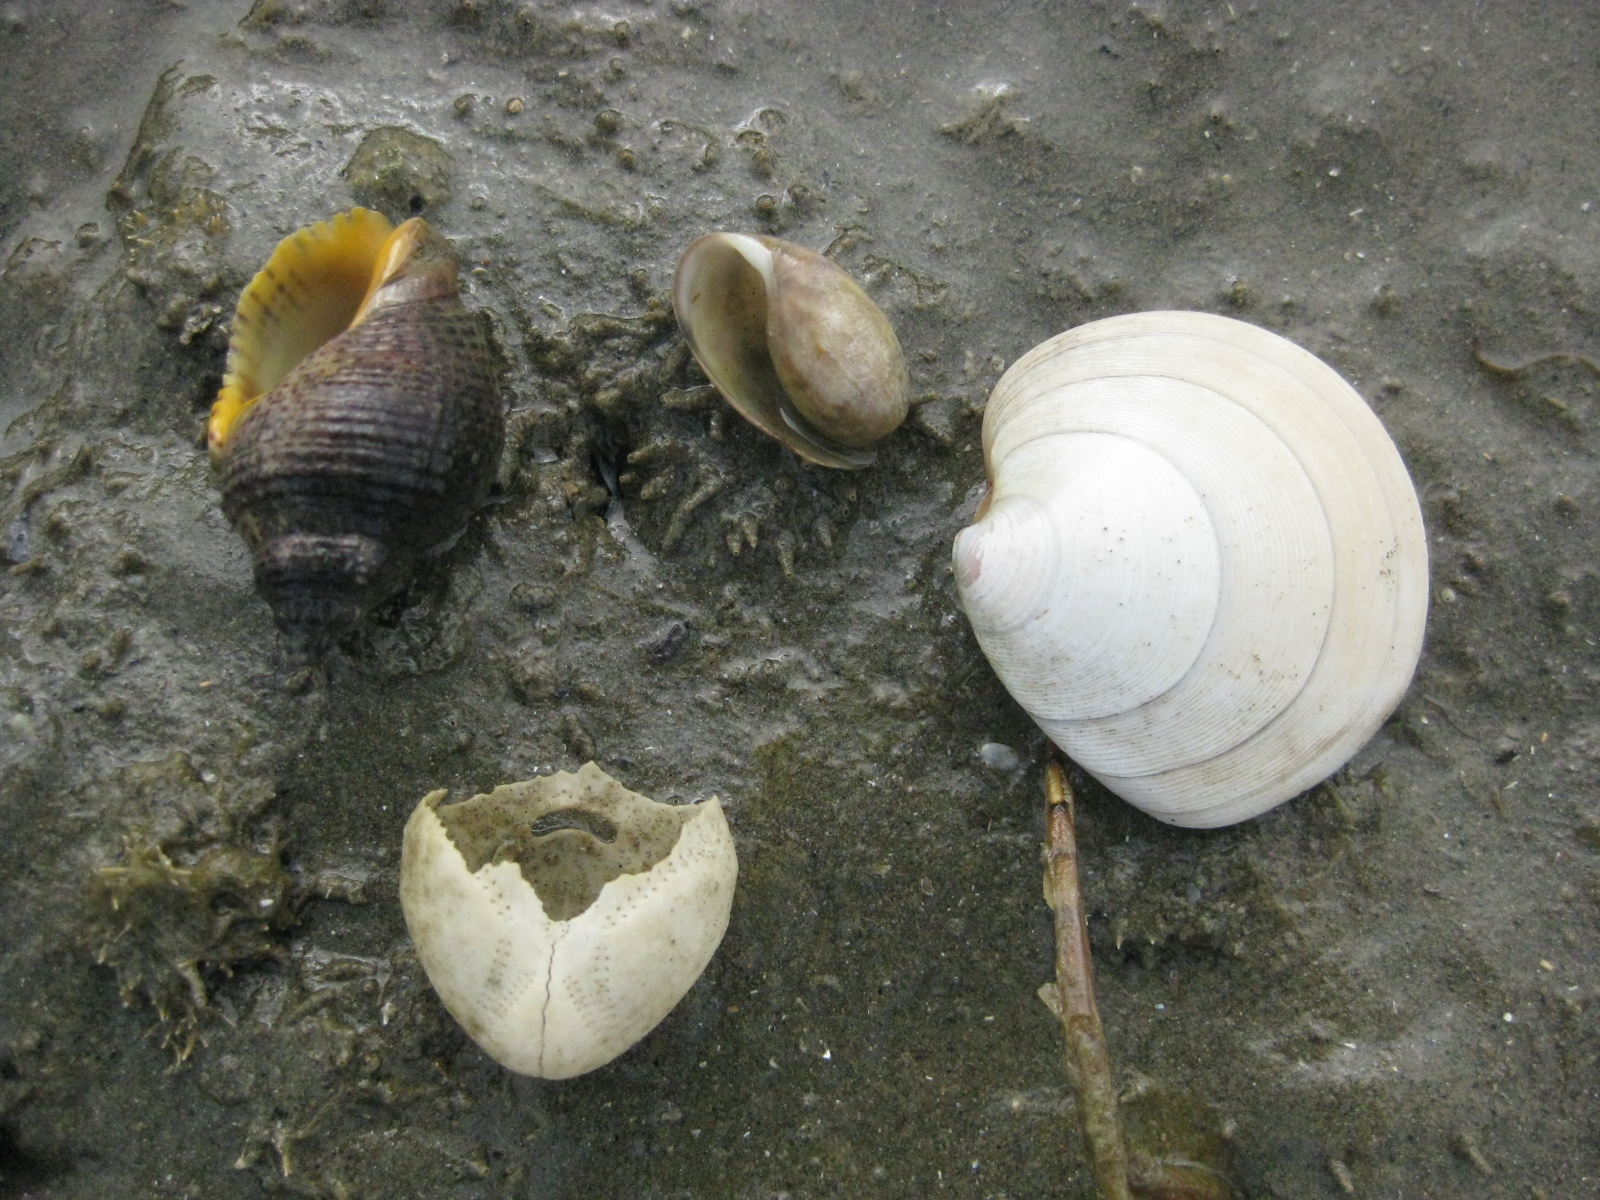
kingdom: Animalia
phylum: Mollusca
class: Gastropoda
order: Neogastropoda
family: Cominellidae
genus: Cominella
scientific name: Cominella adspersa
